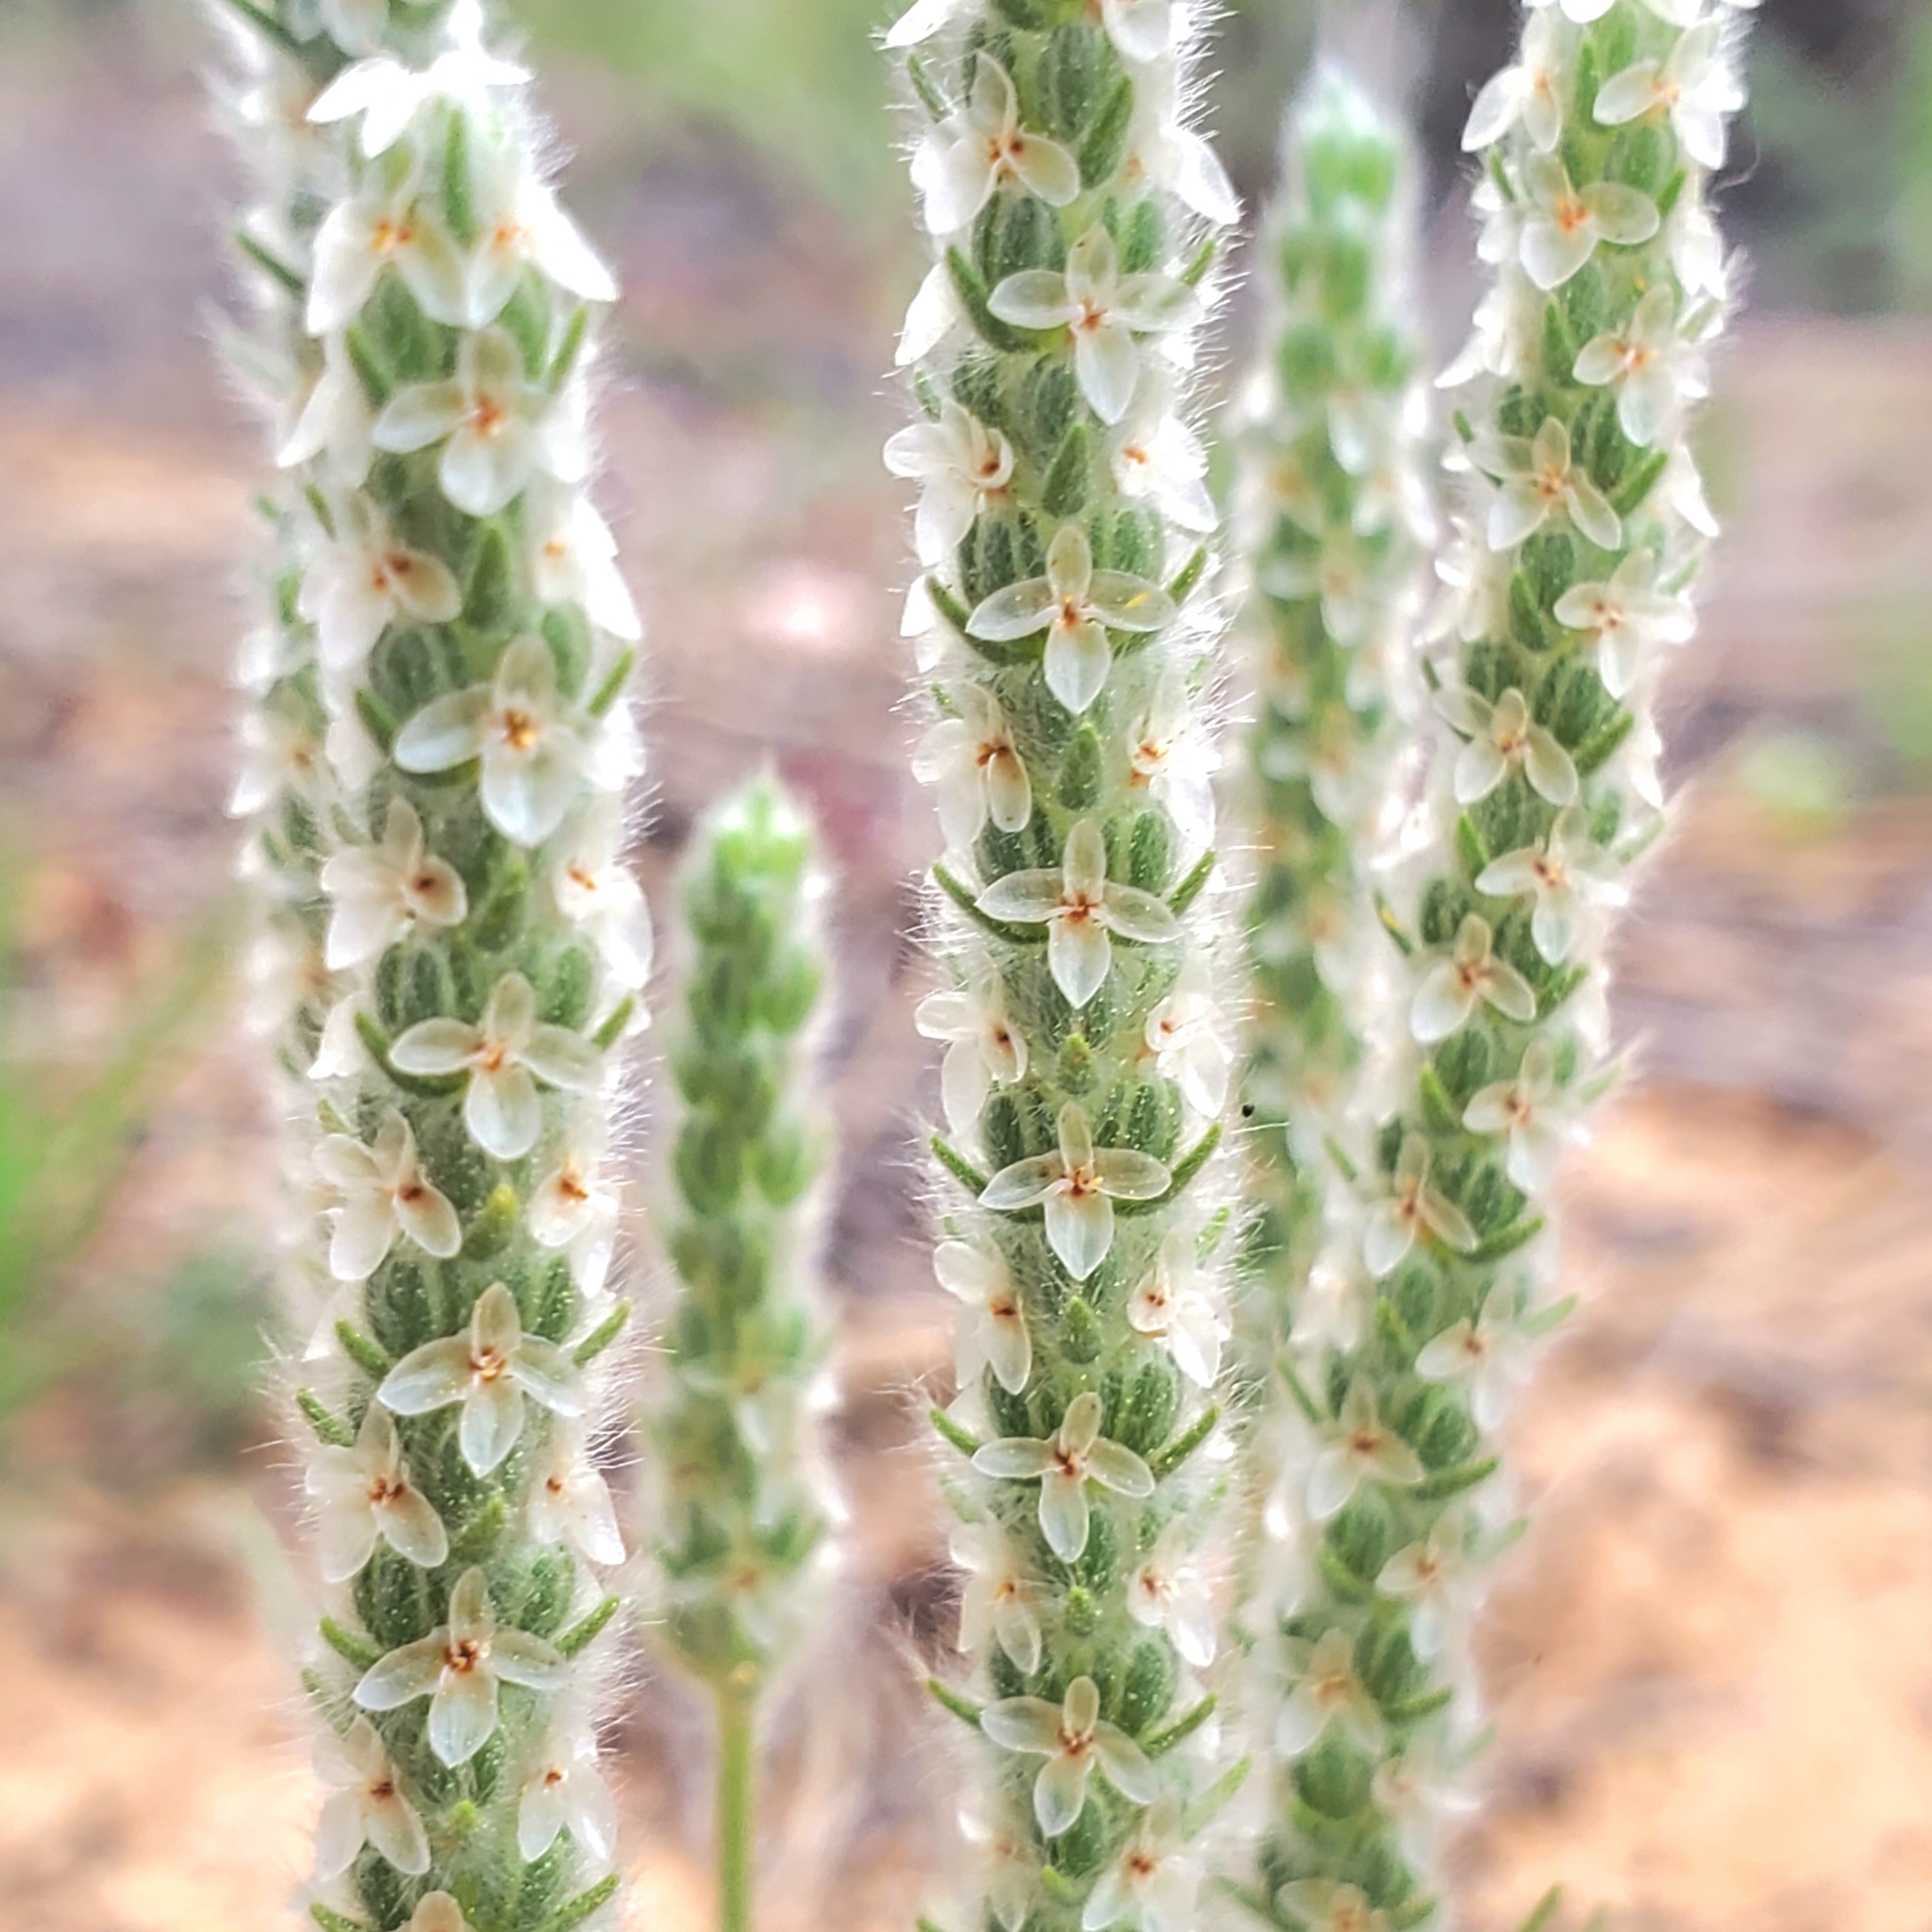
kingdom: Plantae
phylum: Tracheophyta
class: Magnoliopsida
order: Lamiales
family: Plantaginaceae
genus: Plantago
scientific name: Plantago patagonica
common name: Patagonia indian-wheat
